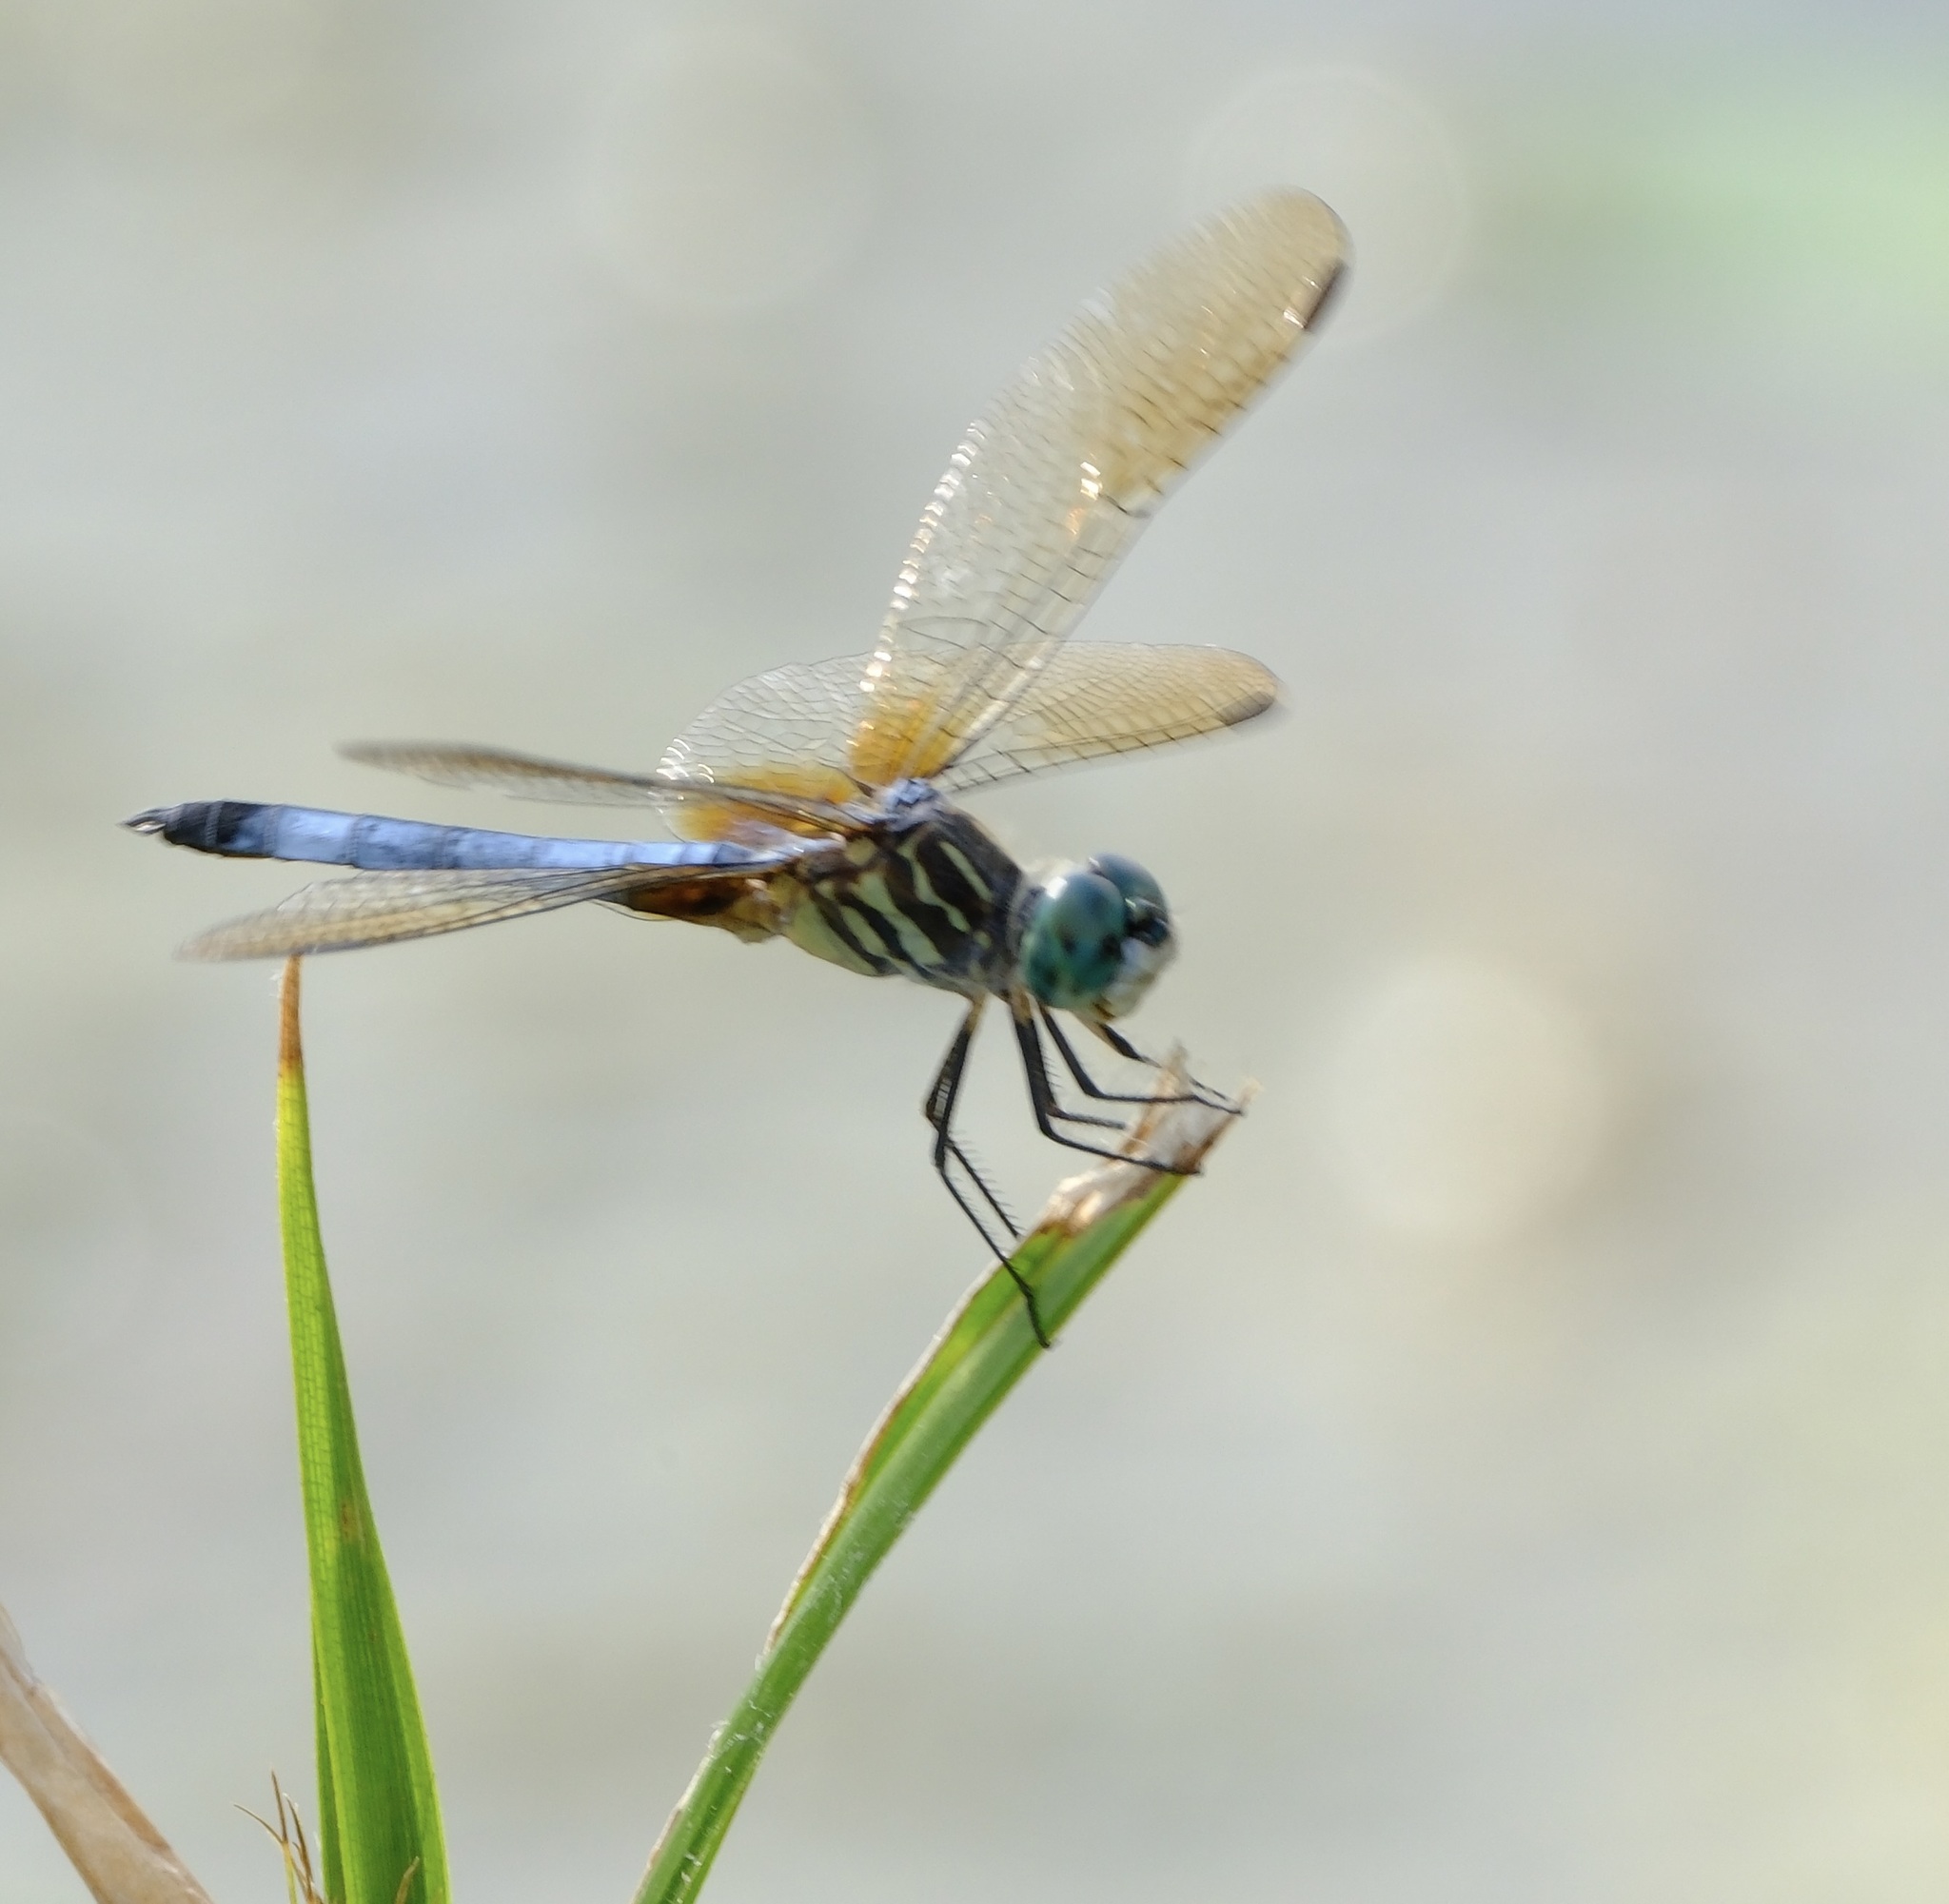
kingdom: Animalia
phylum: Arthropoda
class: Insecta
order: Odonata
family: Libellulidae
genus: Pachydiplax
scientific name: Pachydiplax longipennis
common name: Blue dasher
